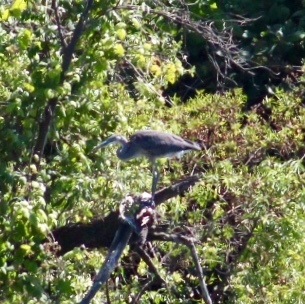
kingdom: Animalia
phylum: Chordata
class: Aves
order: Pelecaniformes
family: Ardeidae
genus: Ardea
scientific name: Ardea herodias
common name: Great blue heron
